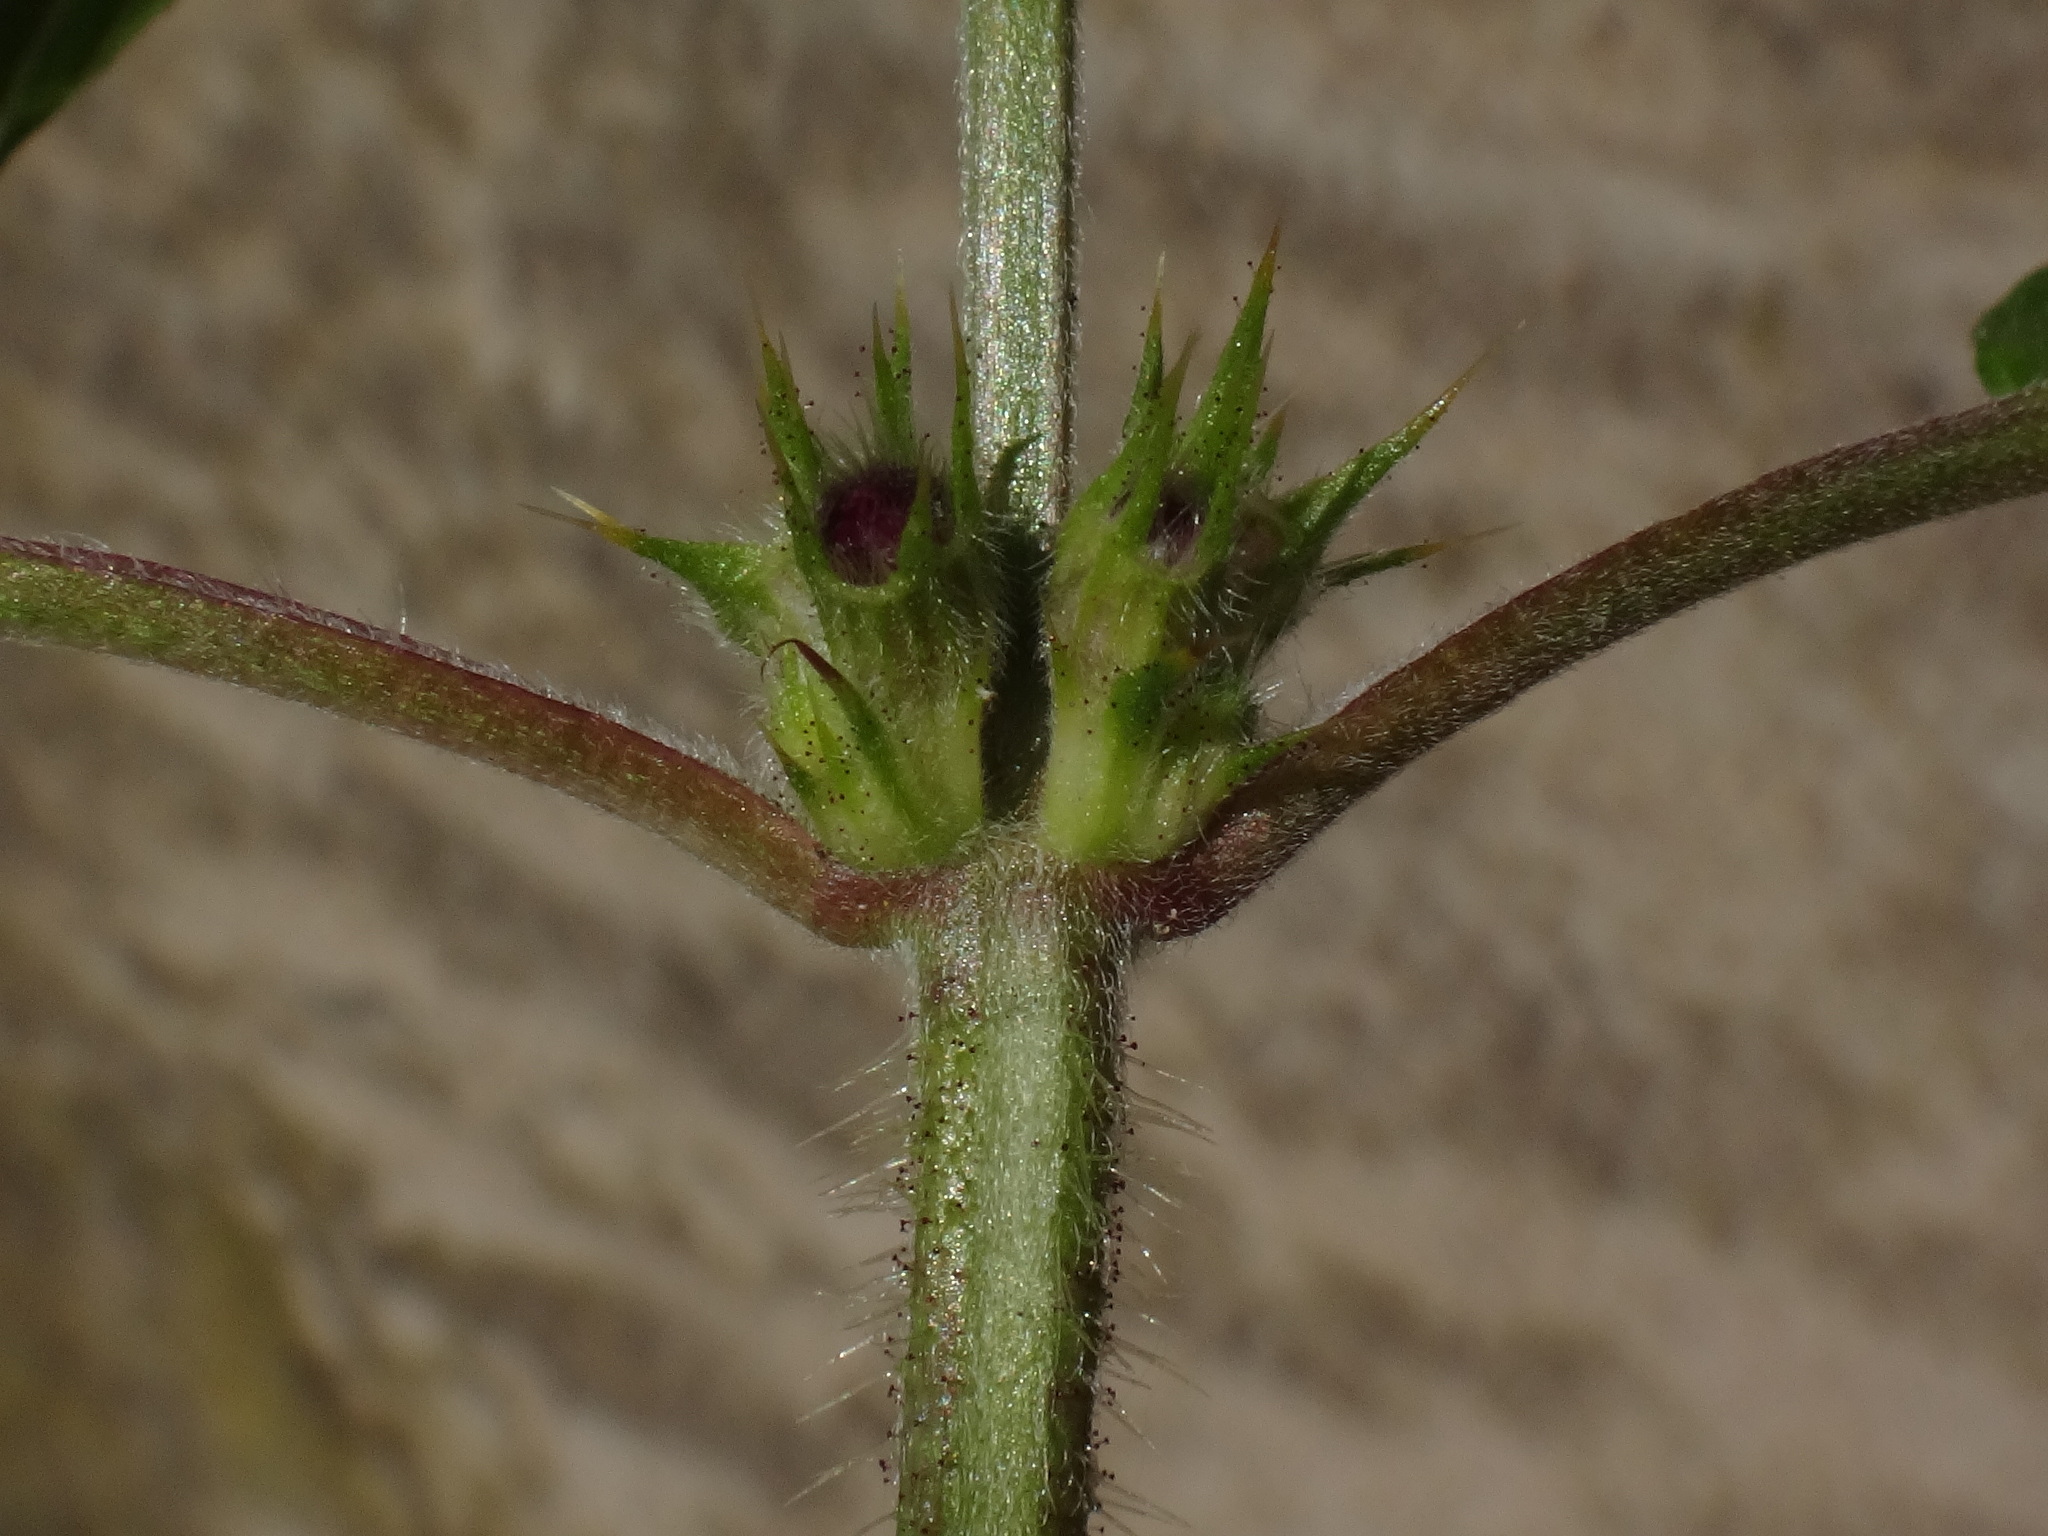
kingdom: Plantae
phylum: Tracheophyta
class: Magnoliopsida
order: Lamiales
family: Lamiaceae
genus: Galeopsis
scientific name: Galeopsis pubescens
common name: Downy hemp-nettle
